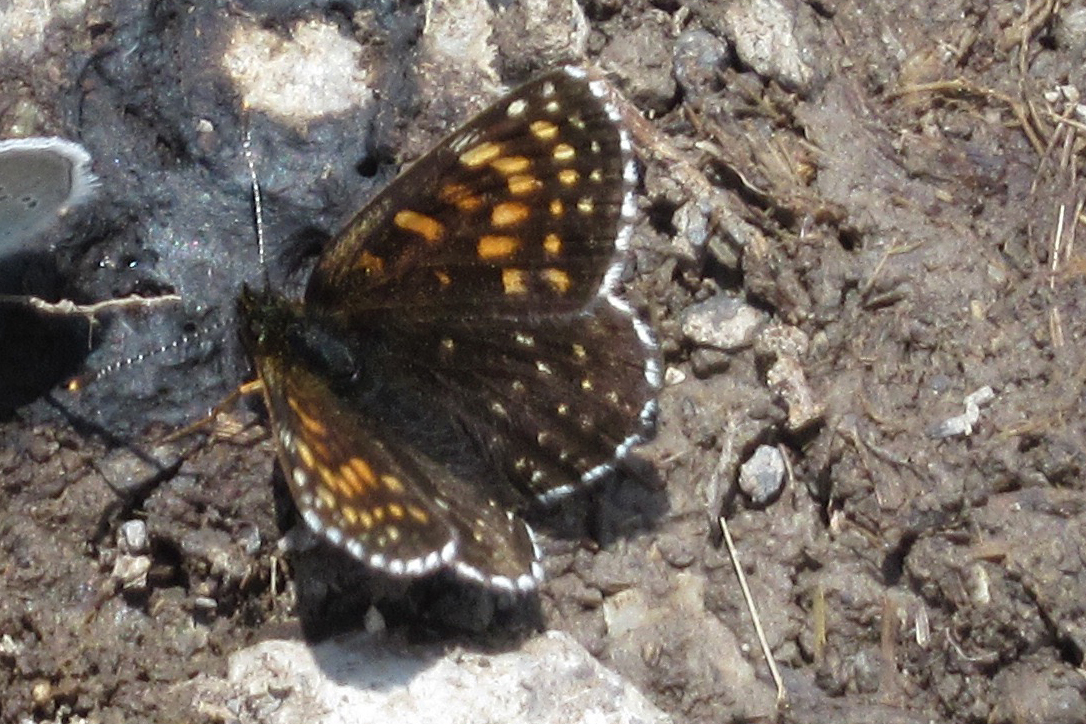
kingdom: Animalia
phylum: Arthropoda
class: Insecta
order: Lepidoptera
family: Nymphalidae
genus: Melitaea
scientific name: Melitaea diamina
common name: False heath fritillary
